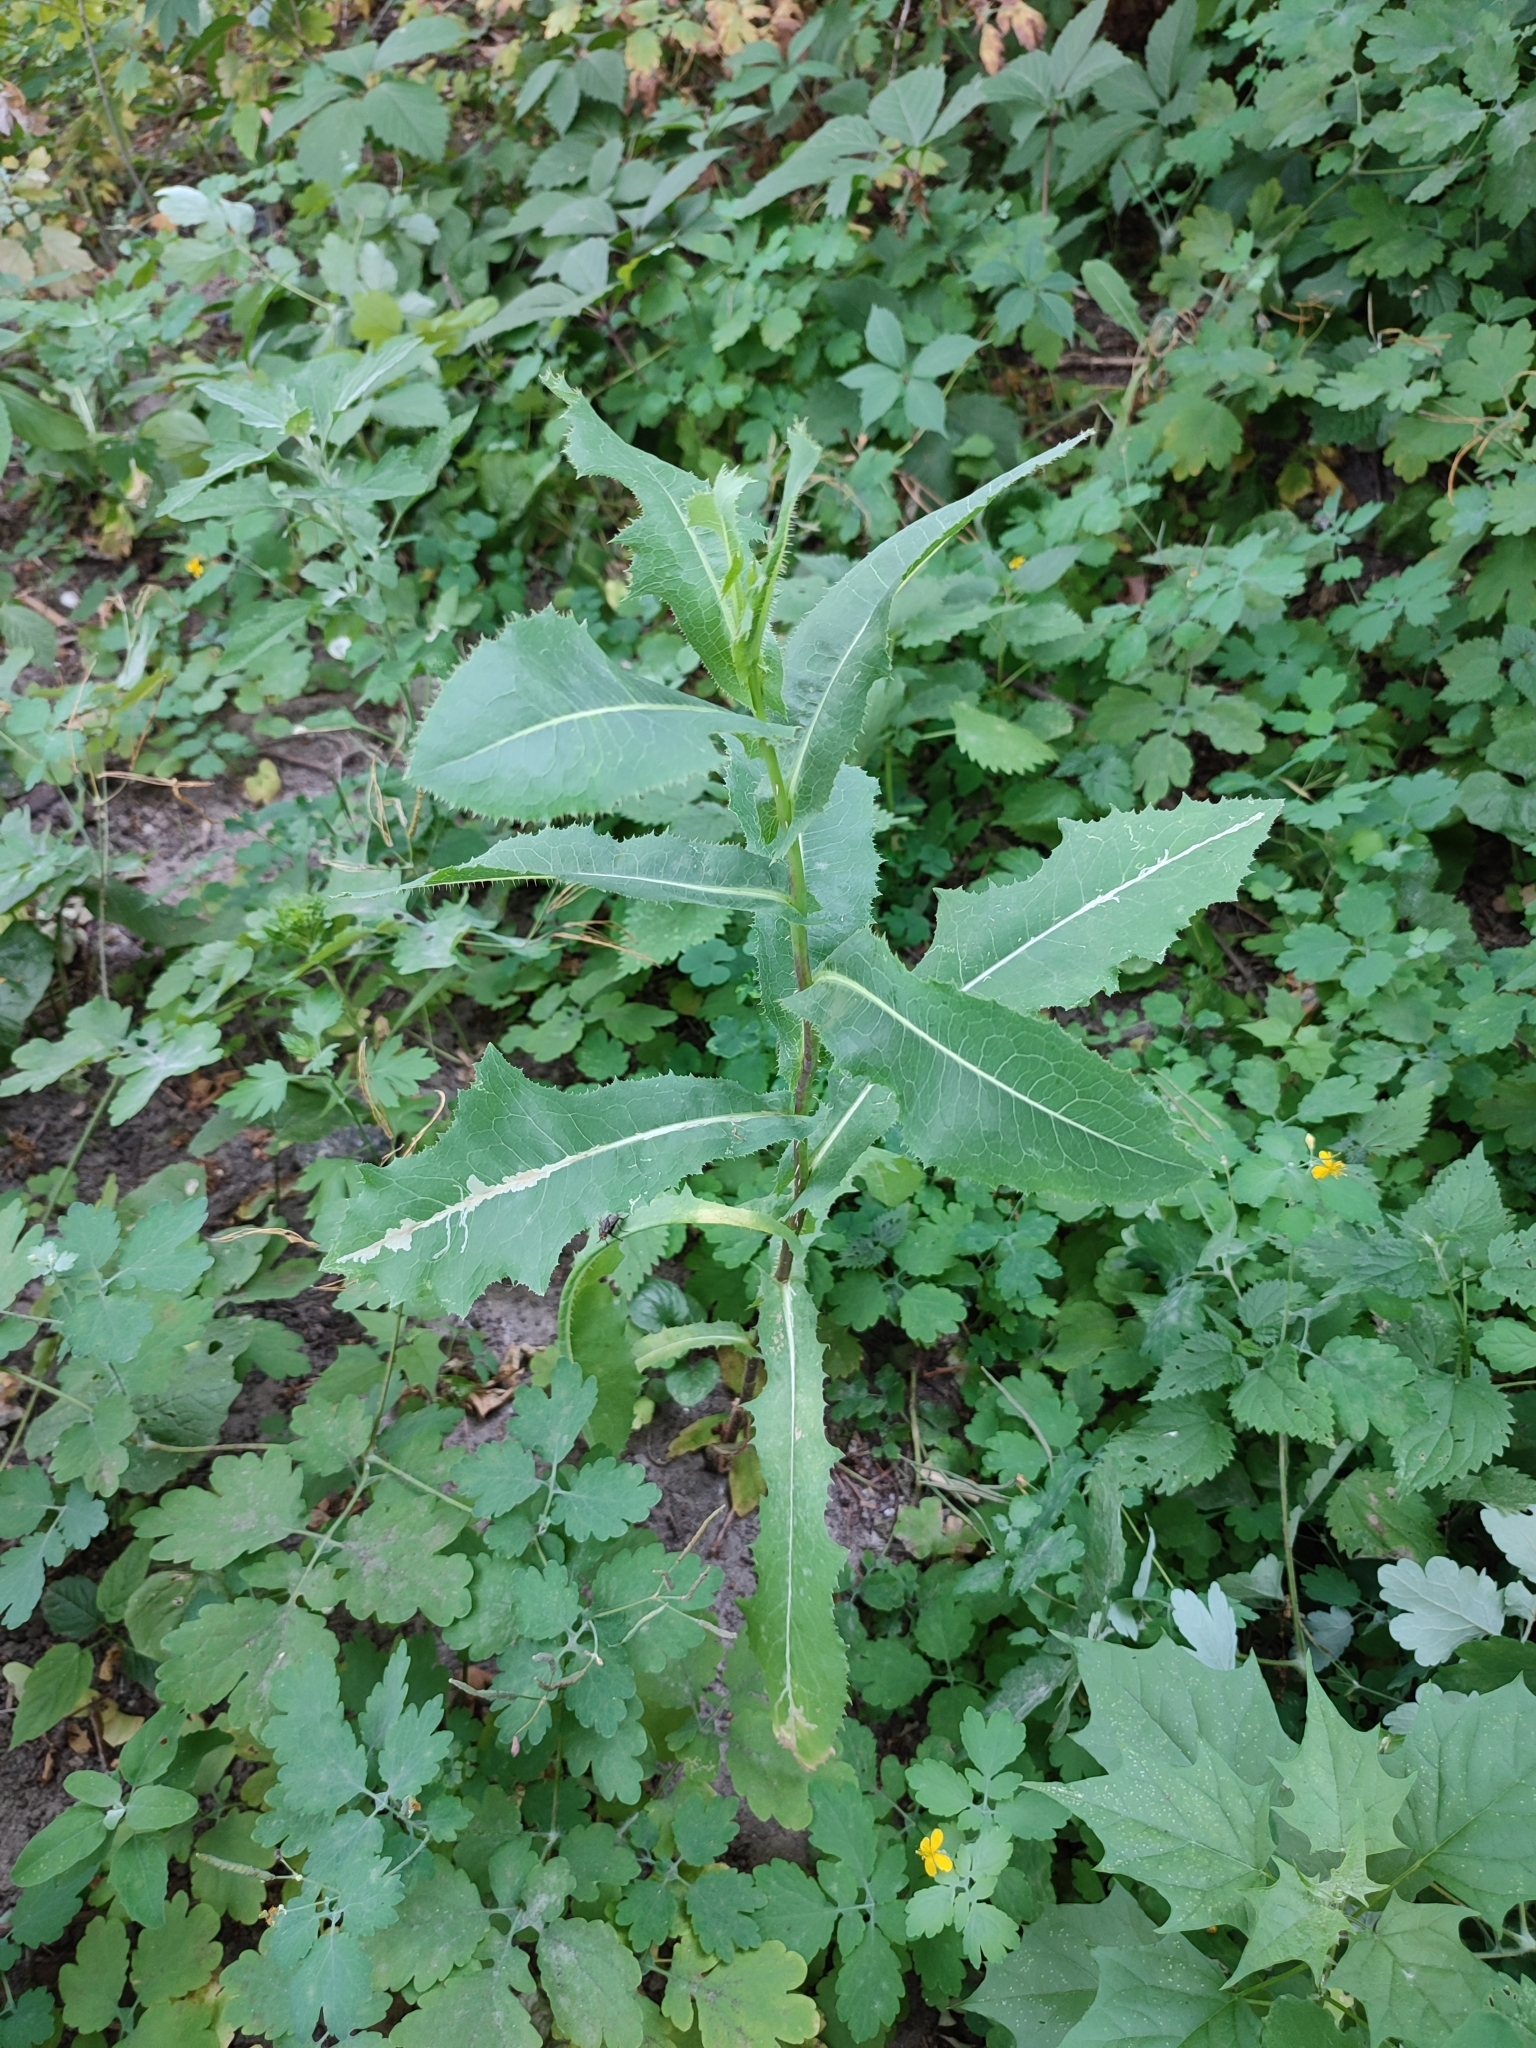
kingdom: Plantae
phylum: Tracheophyta
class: Magnoliopsida
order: Asterales
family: Asteraceae
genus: Lactuca
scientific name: Lactuca serriola
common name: Prickly lettuce
